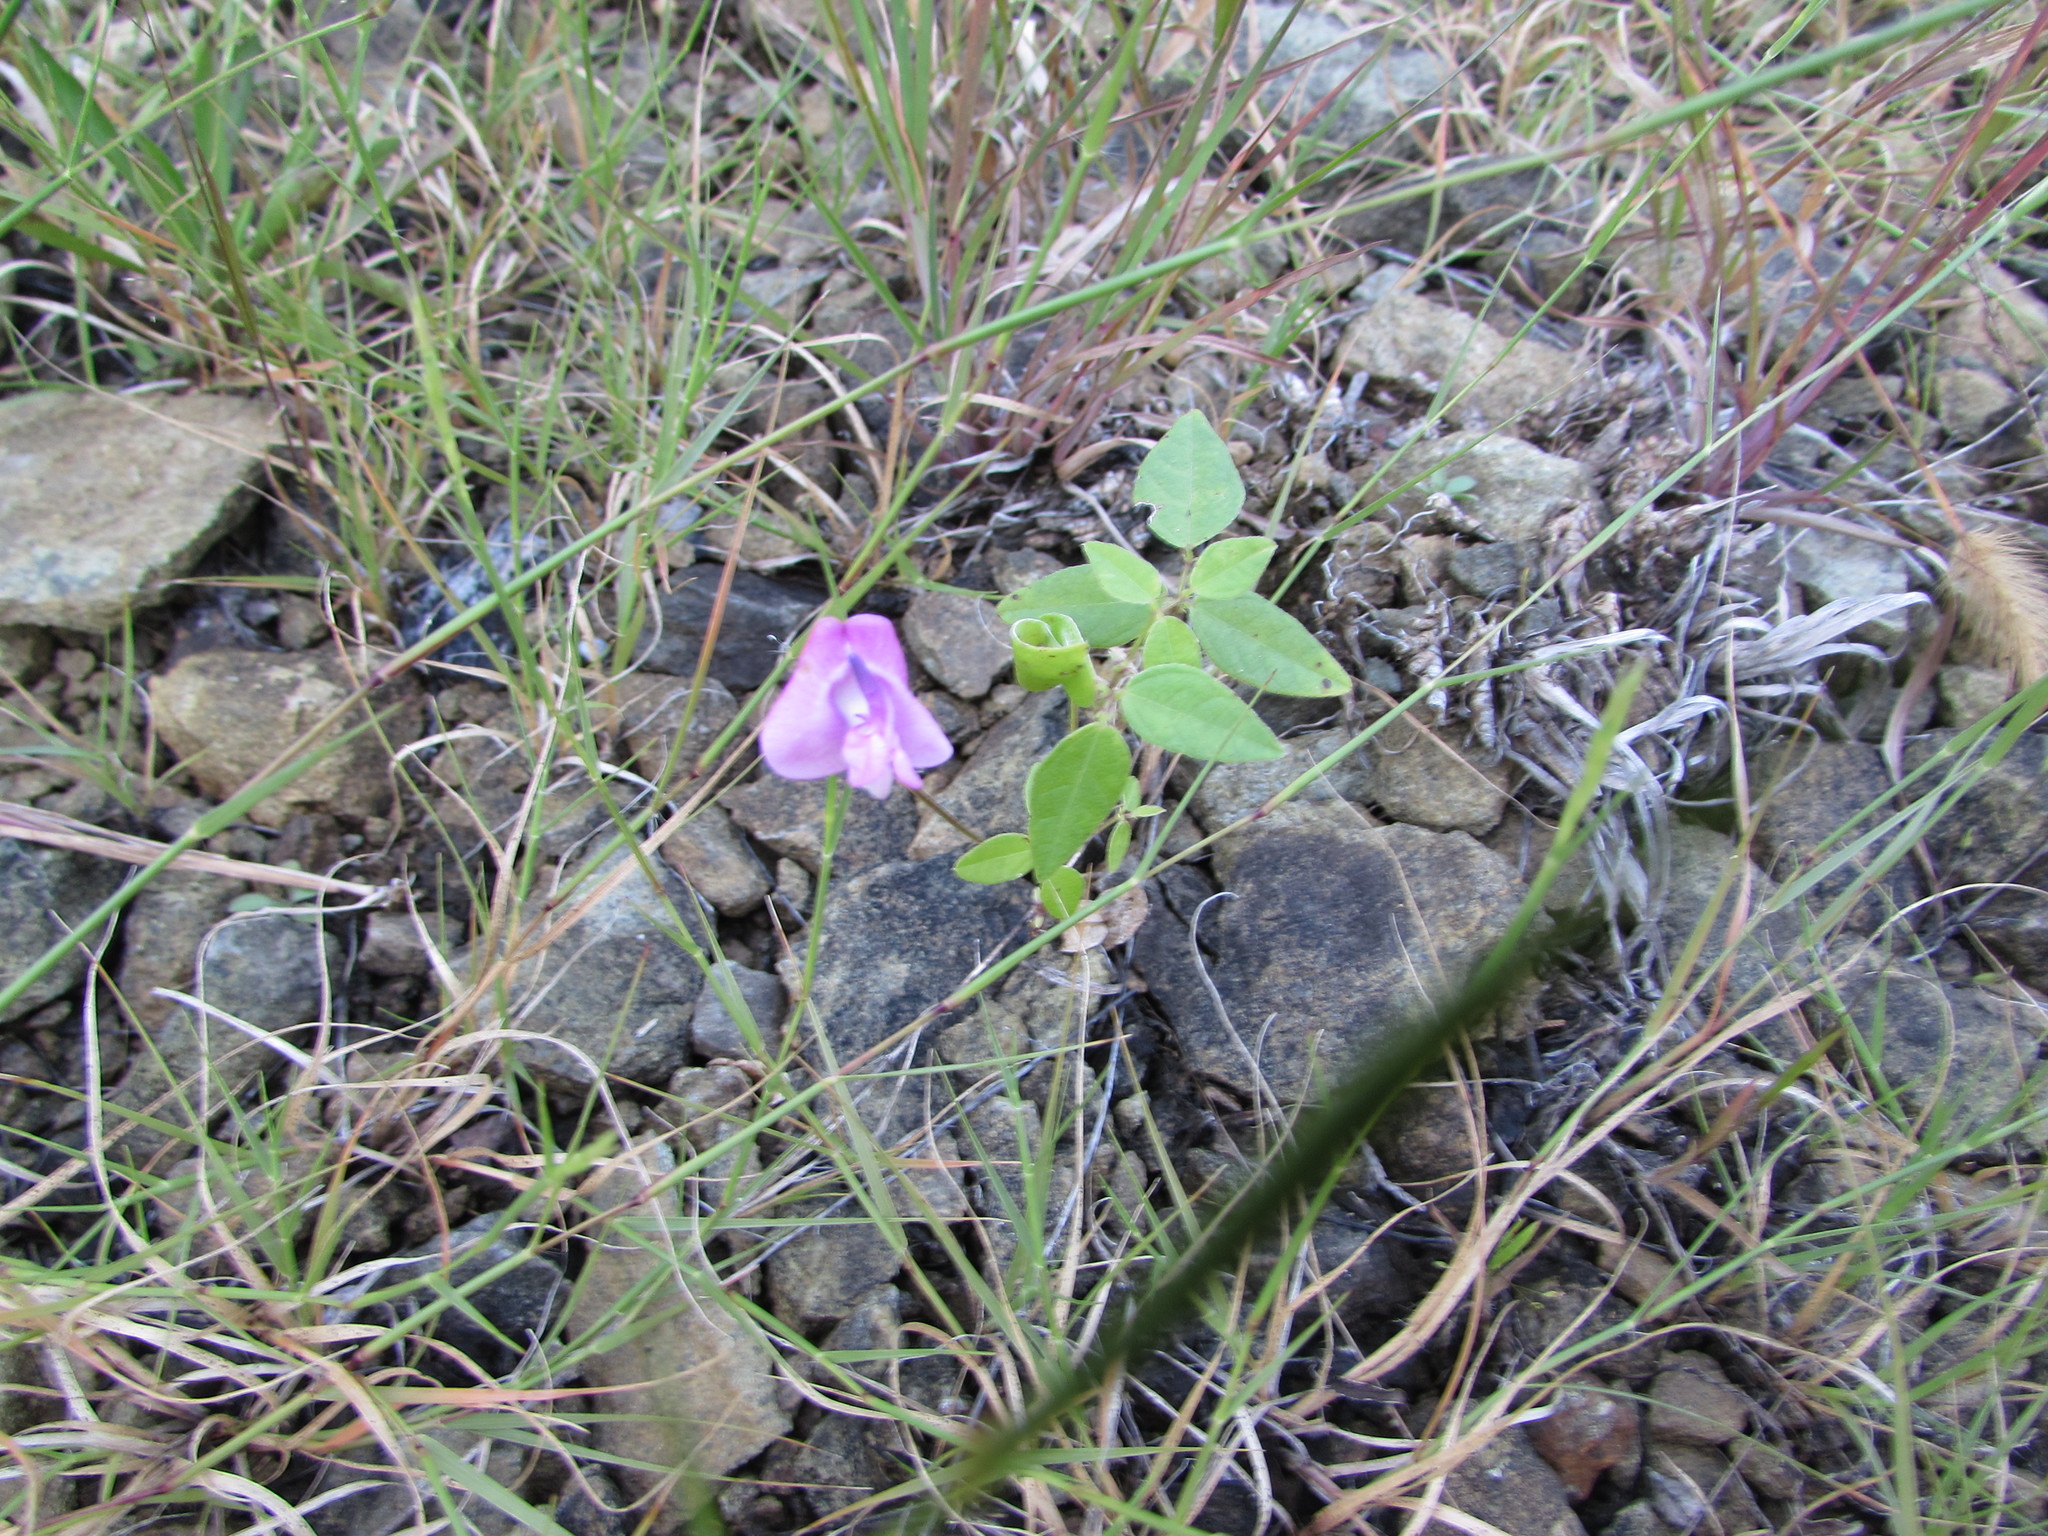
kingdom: Plantae
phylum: Tracheophyta
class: Magnoliopsida
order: Fabales
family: Fabaceae
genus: Strophostyles
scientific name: Strophostyles umbellata
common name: Perennial wild bean
